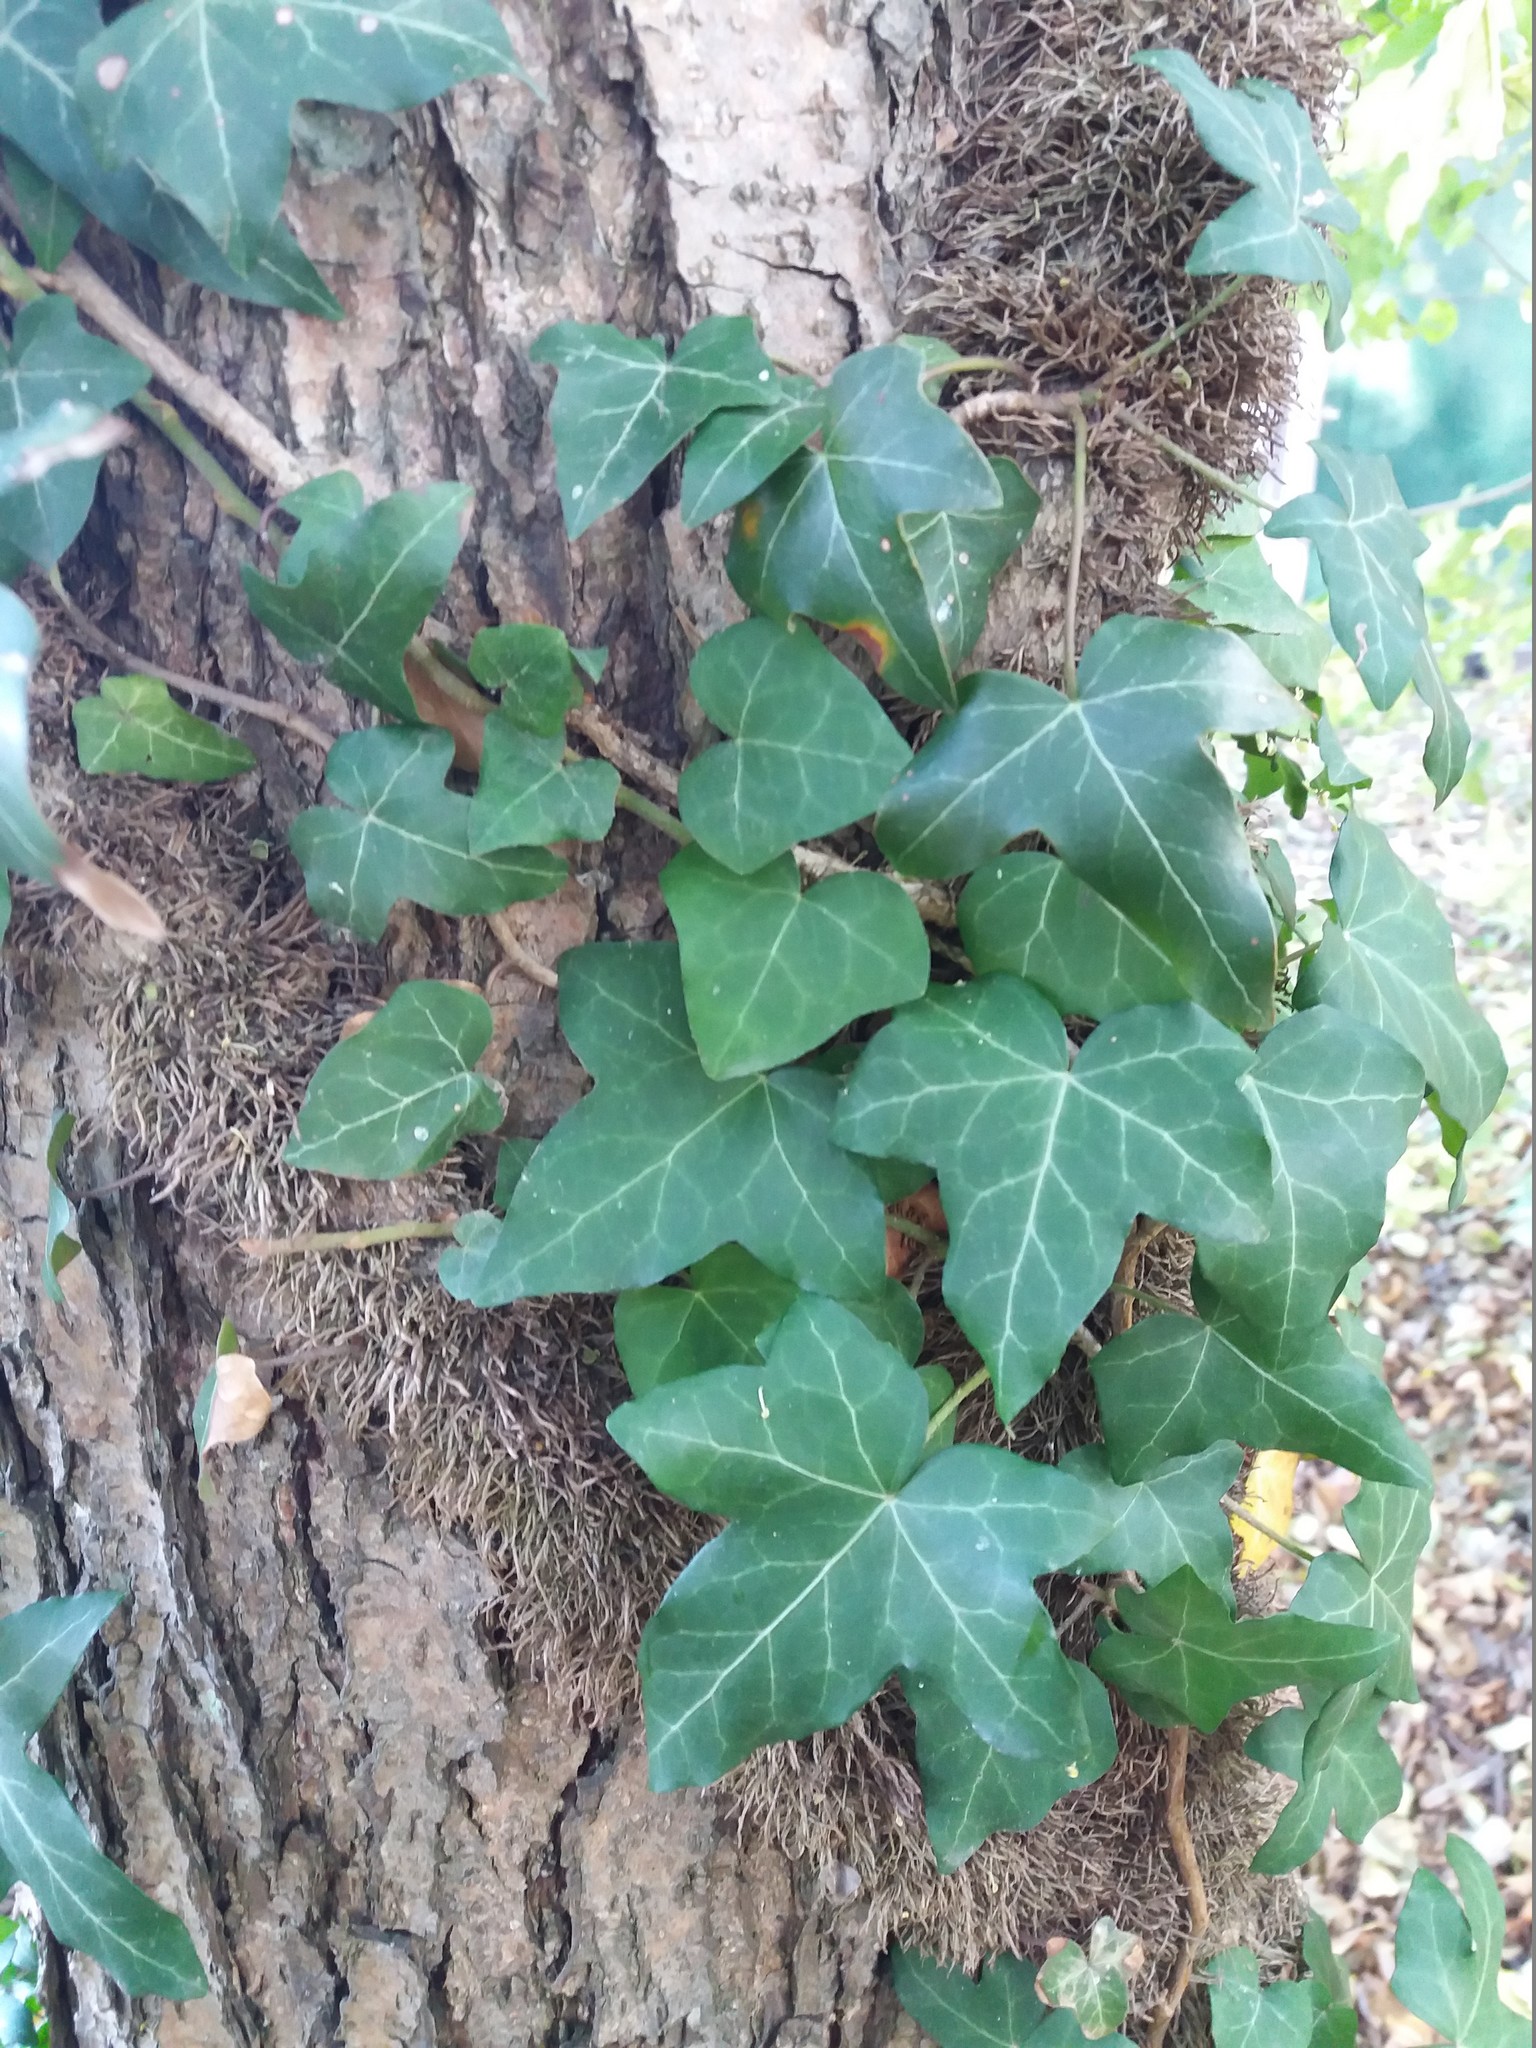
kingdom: Plantae
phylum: Tracheophyta
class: Magnoliopsida
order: Apiales
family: Araliaceae
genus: Hedera
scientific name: Hedera helix
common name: Ivy
